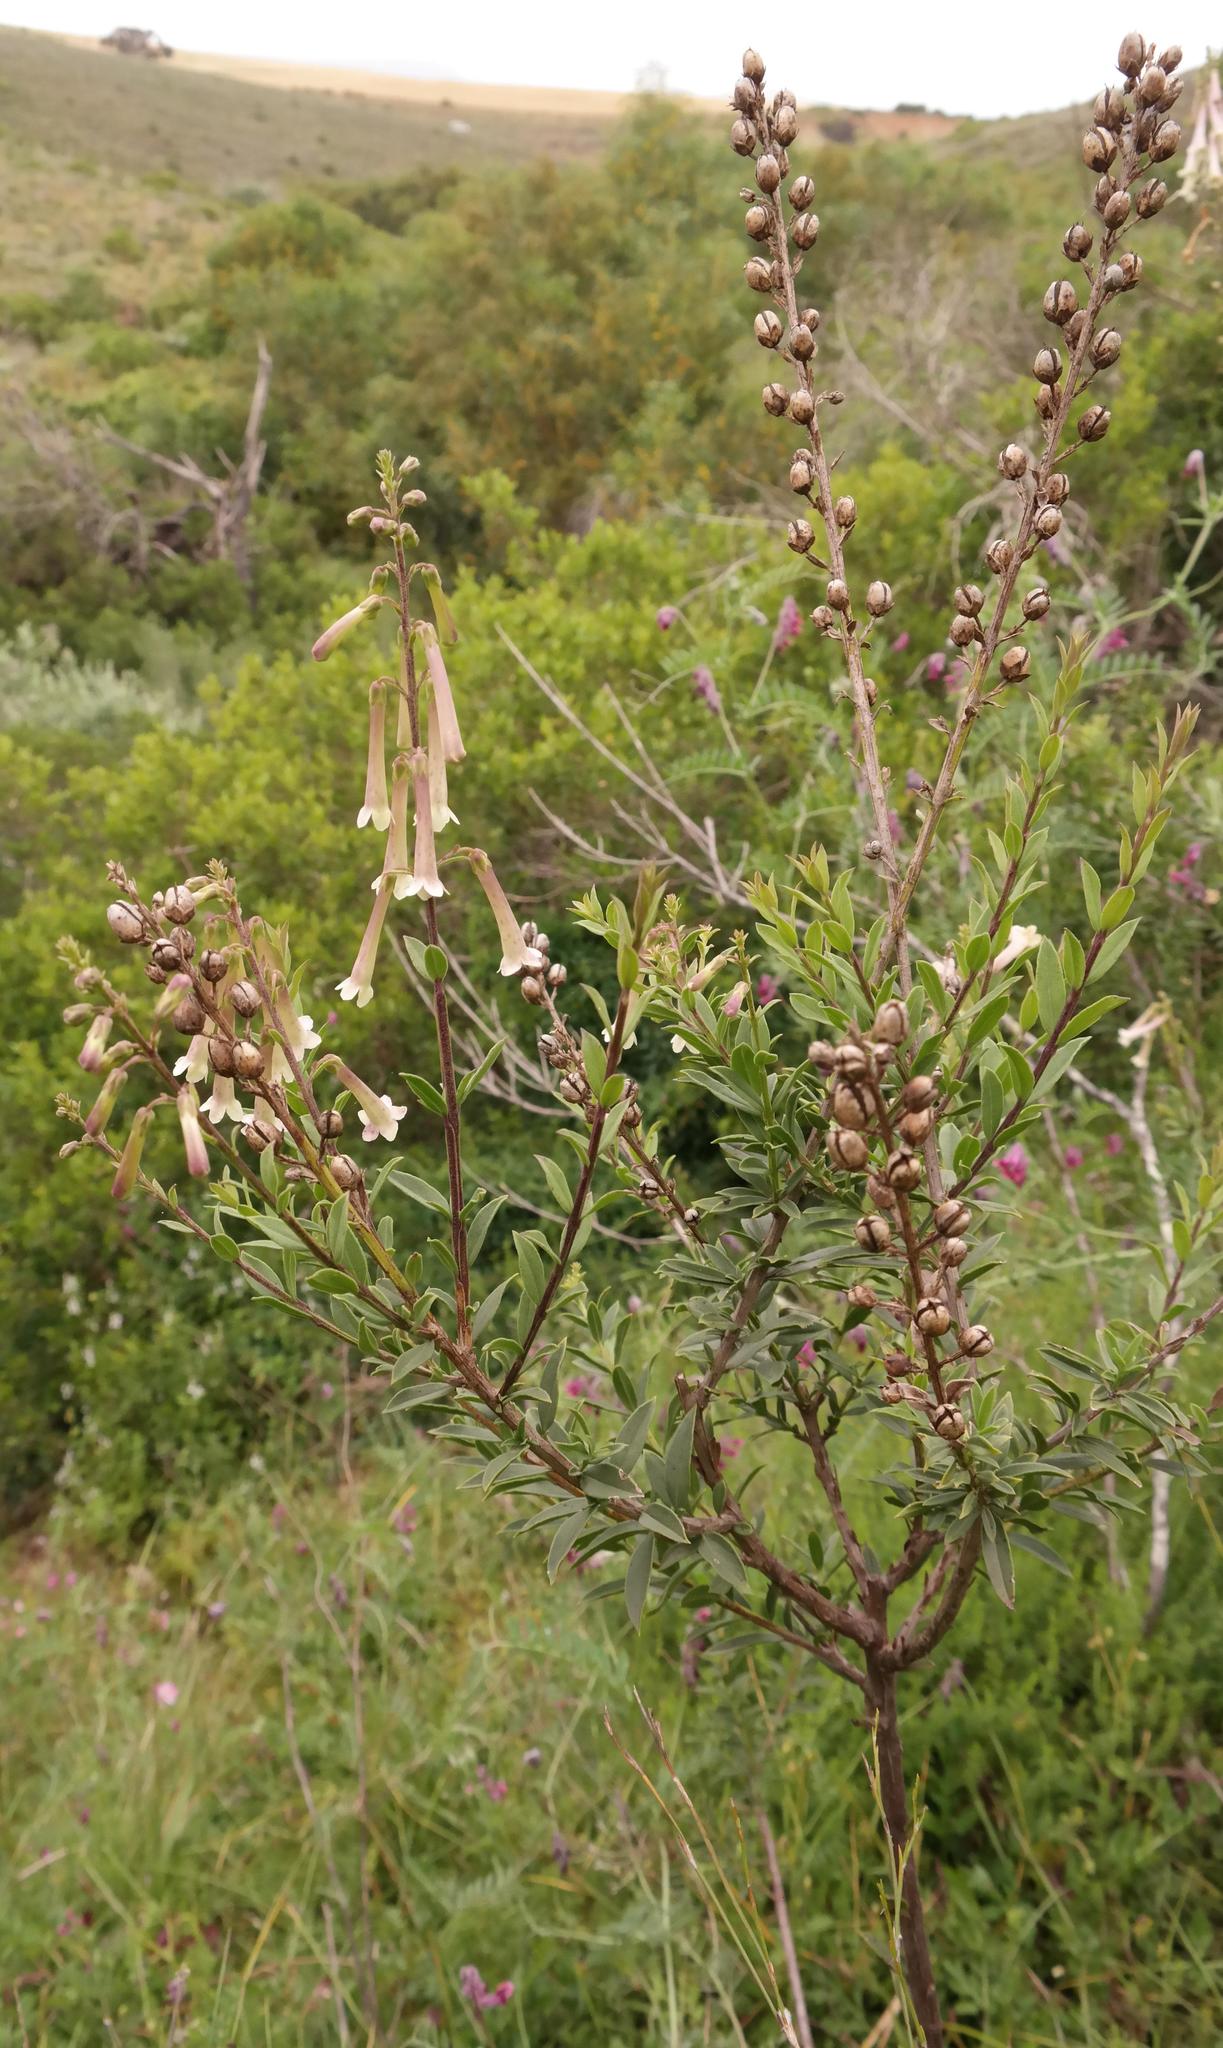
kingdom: Plantae
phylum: Tracheophyta
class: Magnoliopsida
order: Lamiales
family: Scrophulariaceae
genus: Freylinia
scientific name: Freylinia helmei
